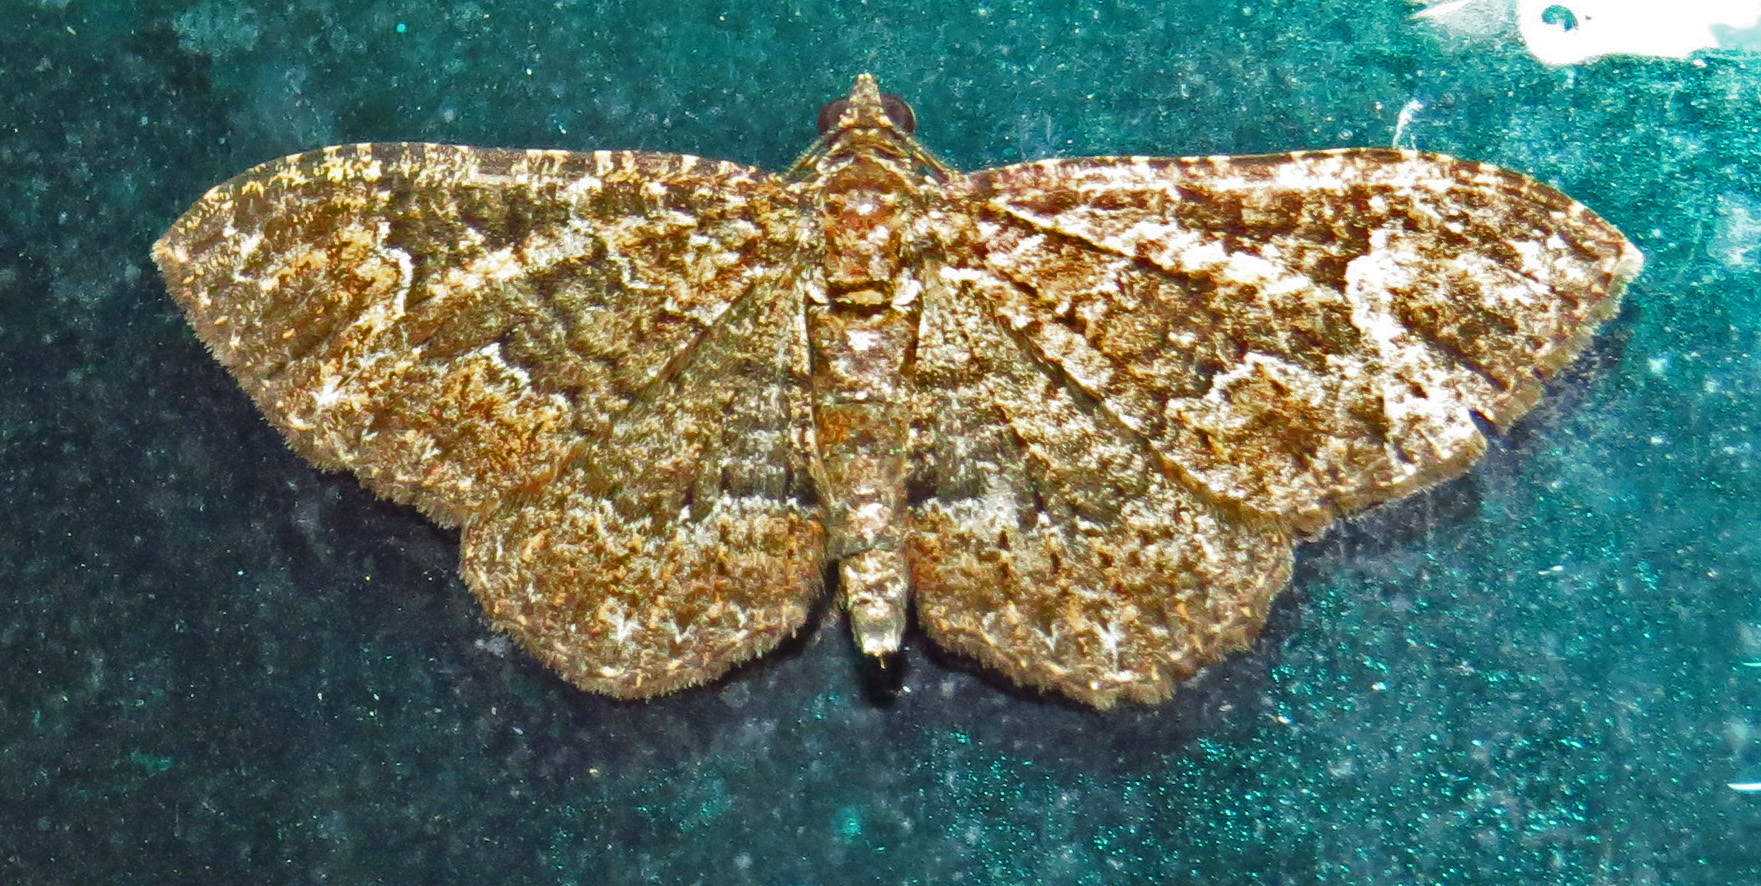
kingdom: Animalia
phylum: Arthropoda
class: Insecta
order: Lepidoptera
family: Geometridae
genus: Disclisioprocta
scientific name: Disclisioprocta stellata
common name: Somber carpet
